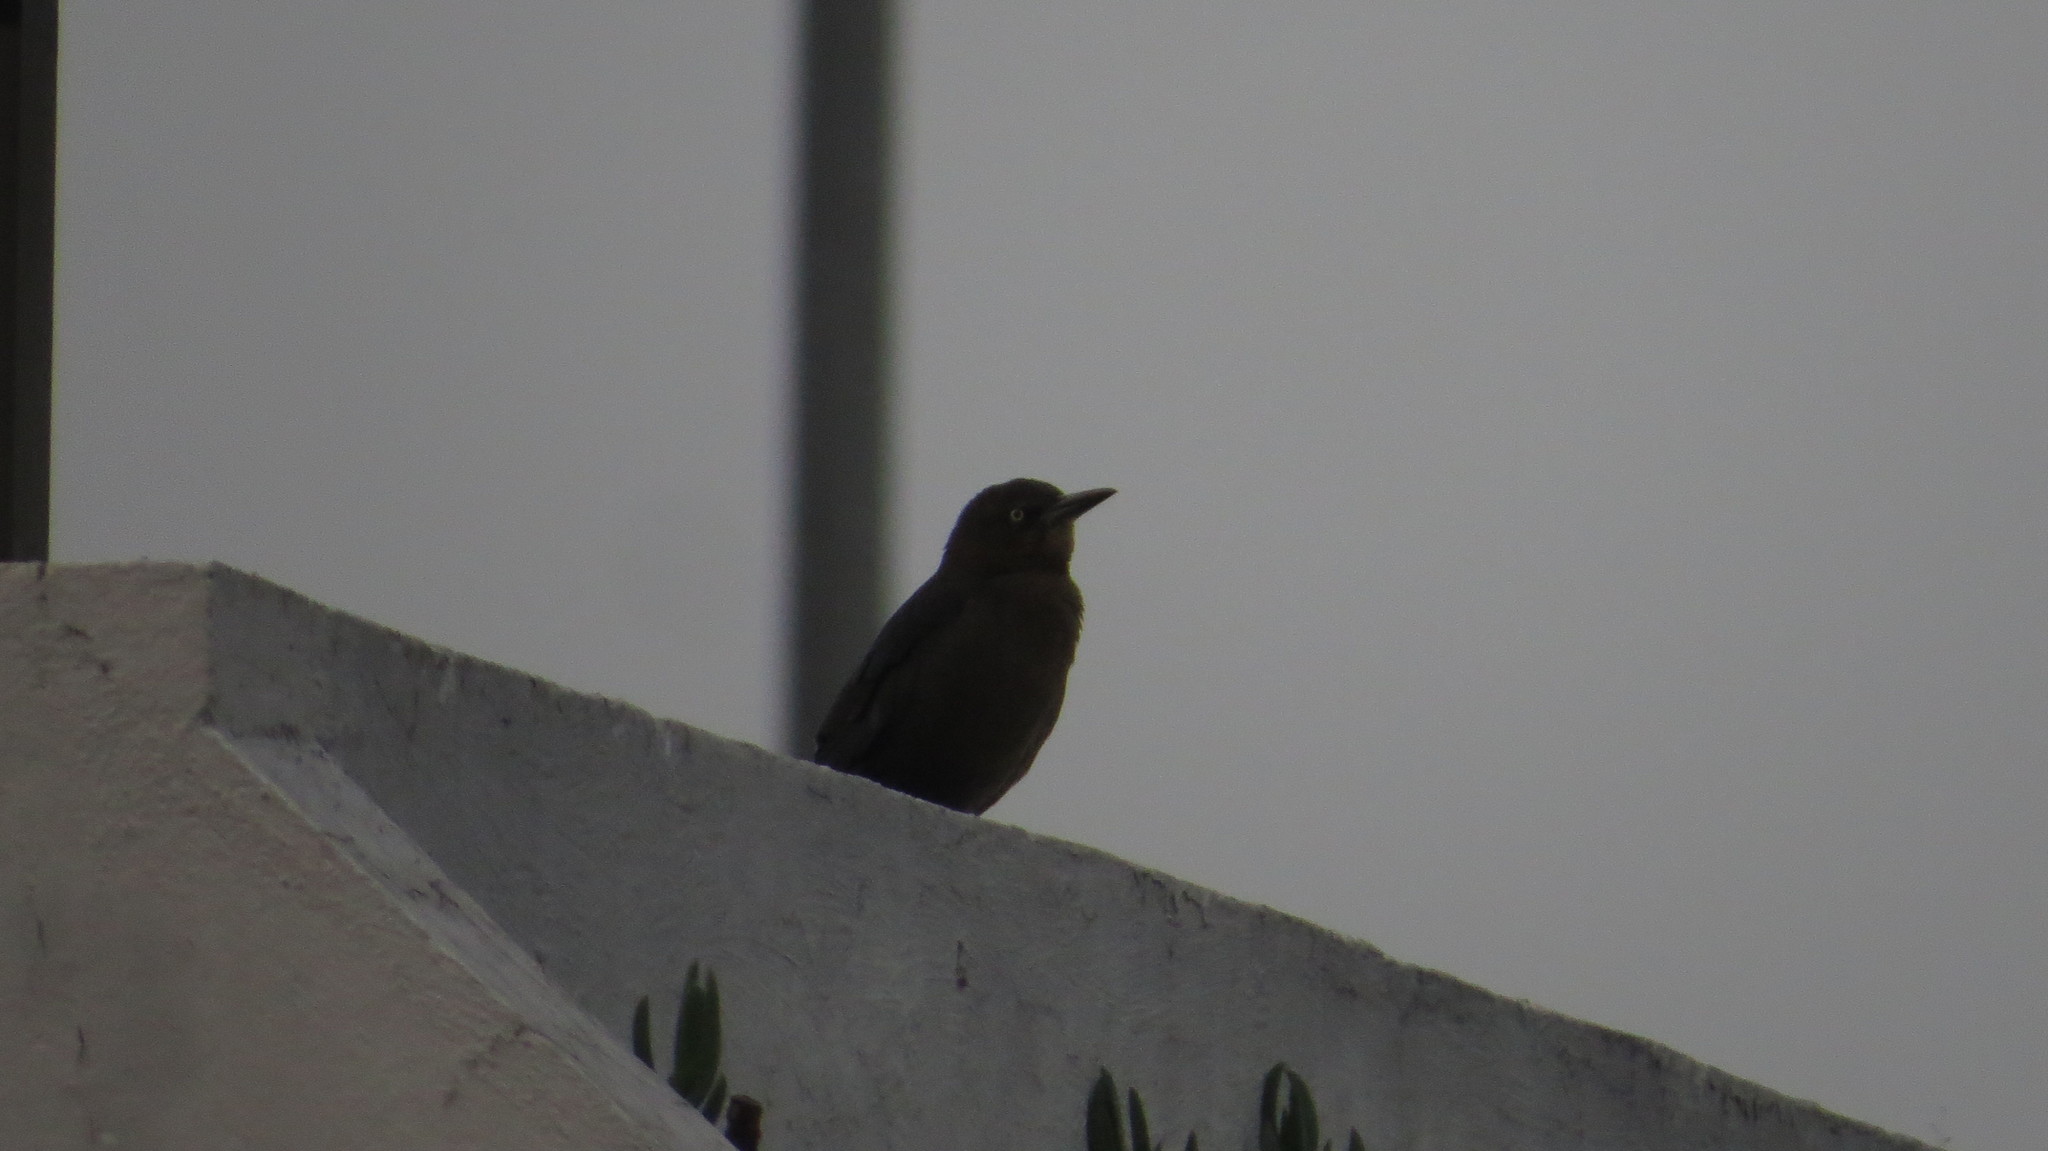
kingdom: Animalia
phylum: Chordata
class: Aves
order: Passeriformes
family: Icteridae
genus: Quiscalus
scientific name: Quiscalus mexicanus
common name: Great-tailed grackle
